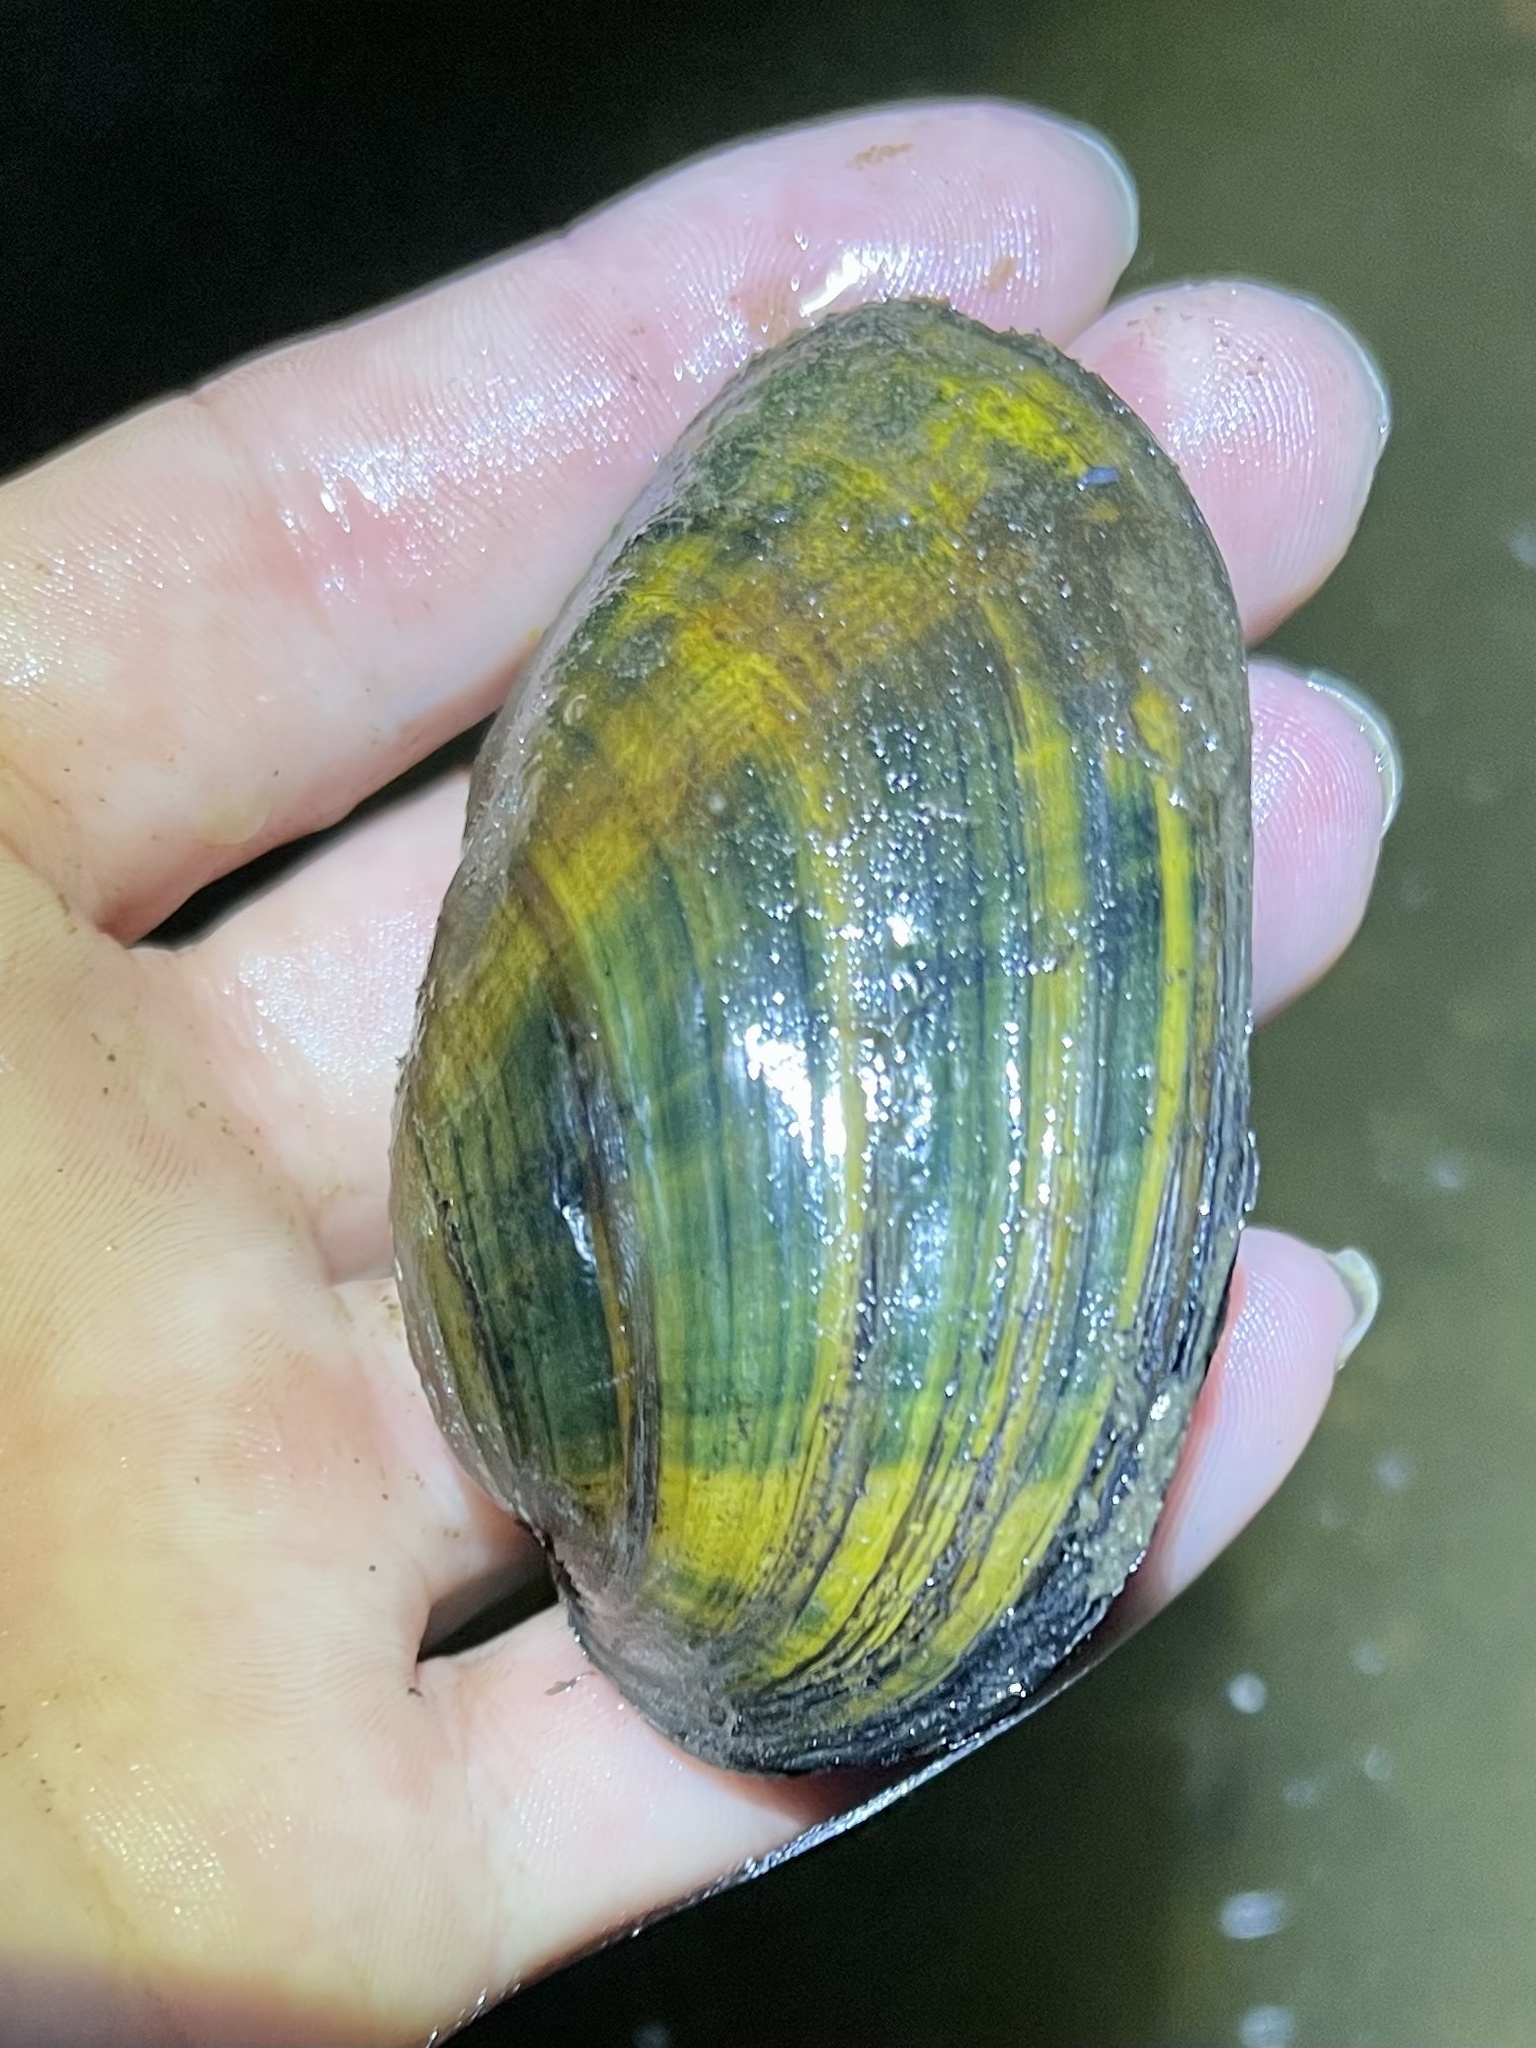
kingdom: Animalia
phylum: Mollusca
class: Bivalvia
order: Unionida
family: Unionidae
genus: Ortmanniana
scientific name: Ortmanniana ligamentina
